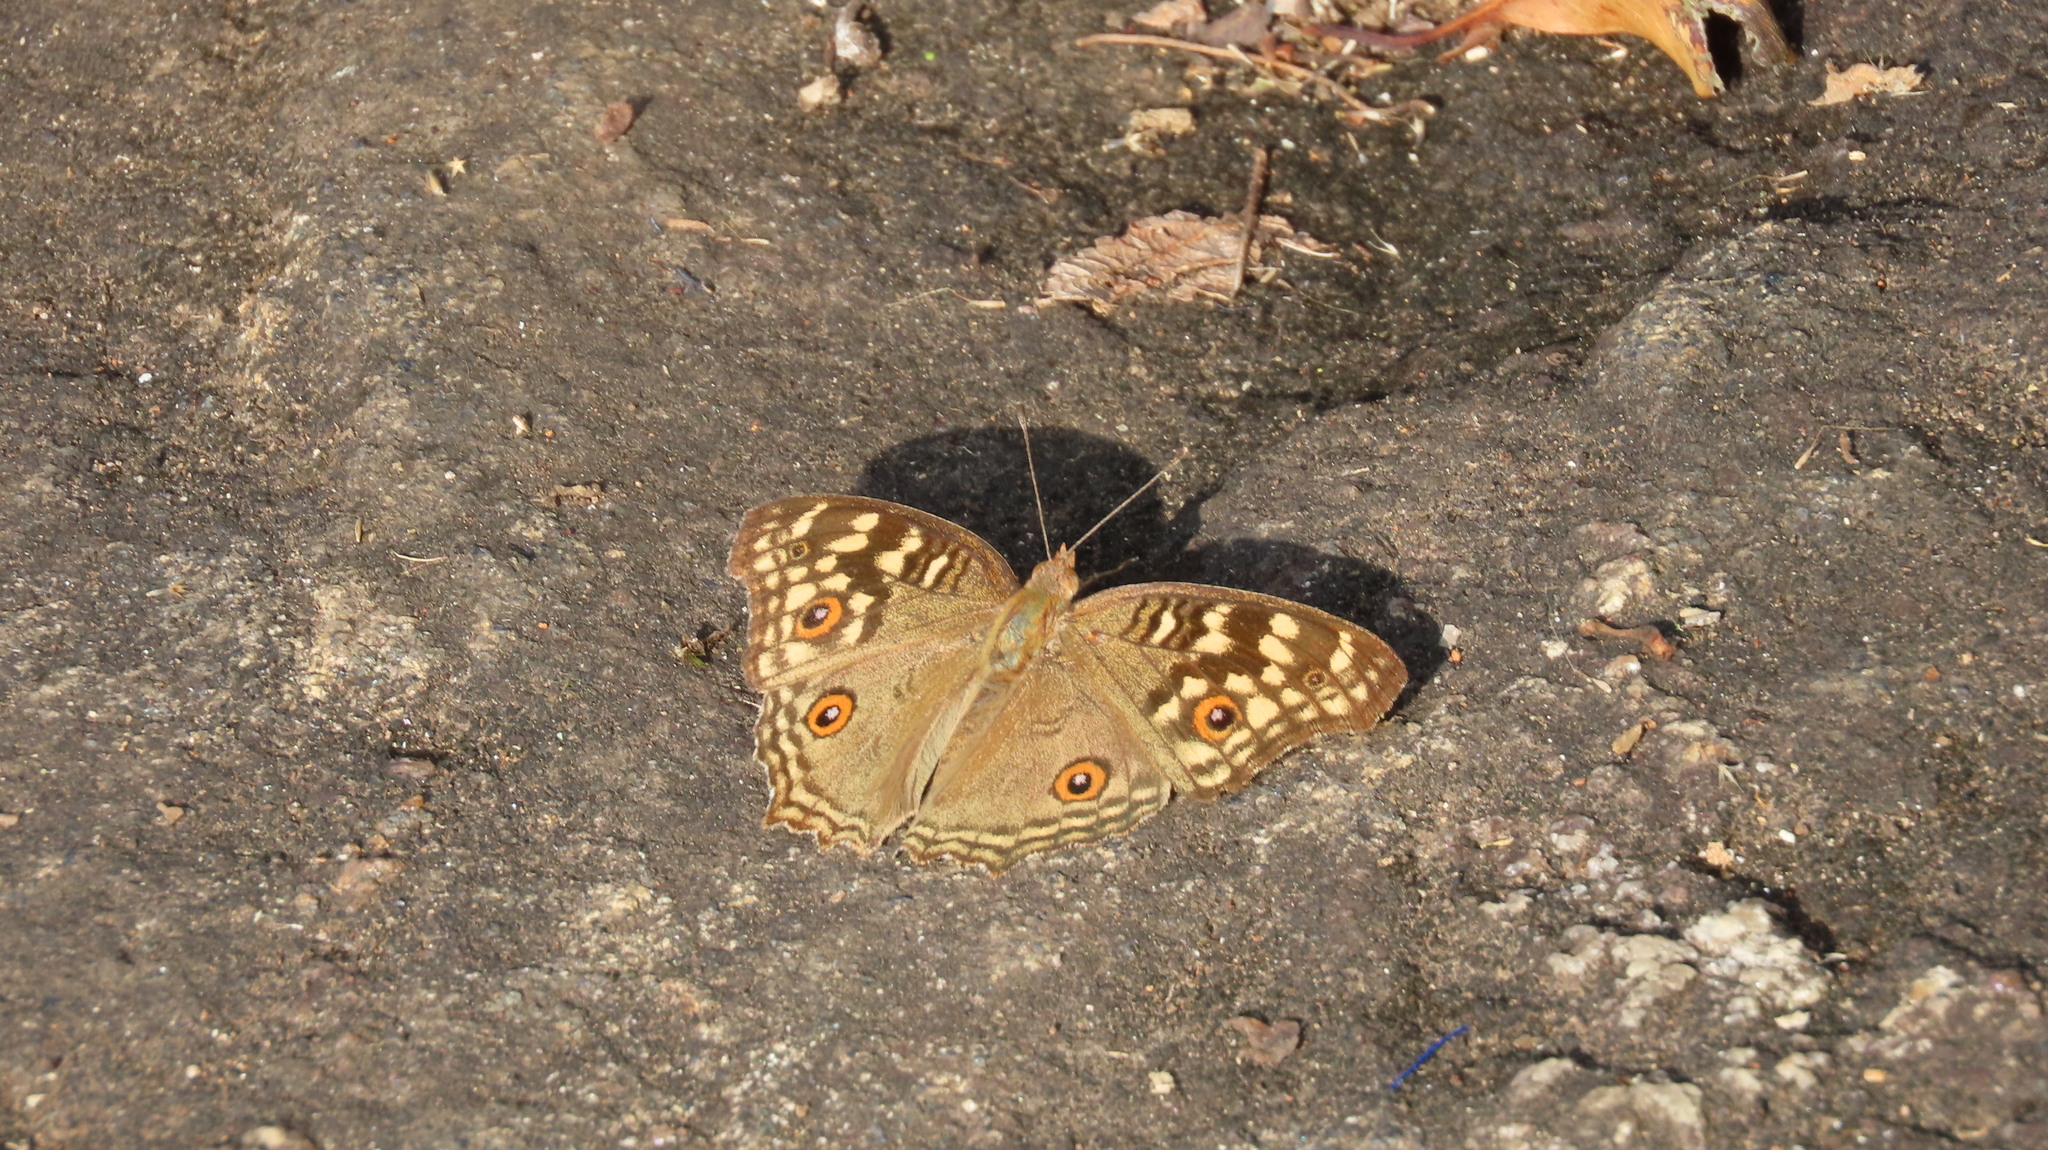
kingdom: Animalia
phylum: Arthropoda
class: Insecta
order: Lepidoptera
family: Nymphalidae
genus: Junonia
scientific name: Junonia lemonias
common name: Lemon pansy
